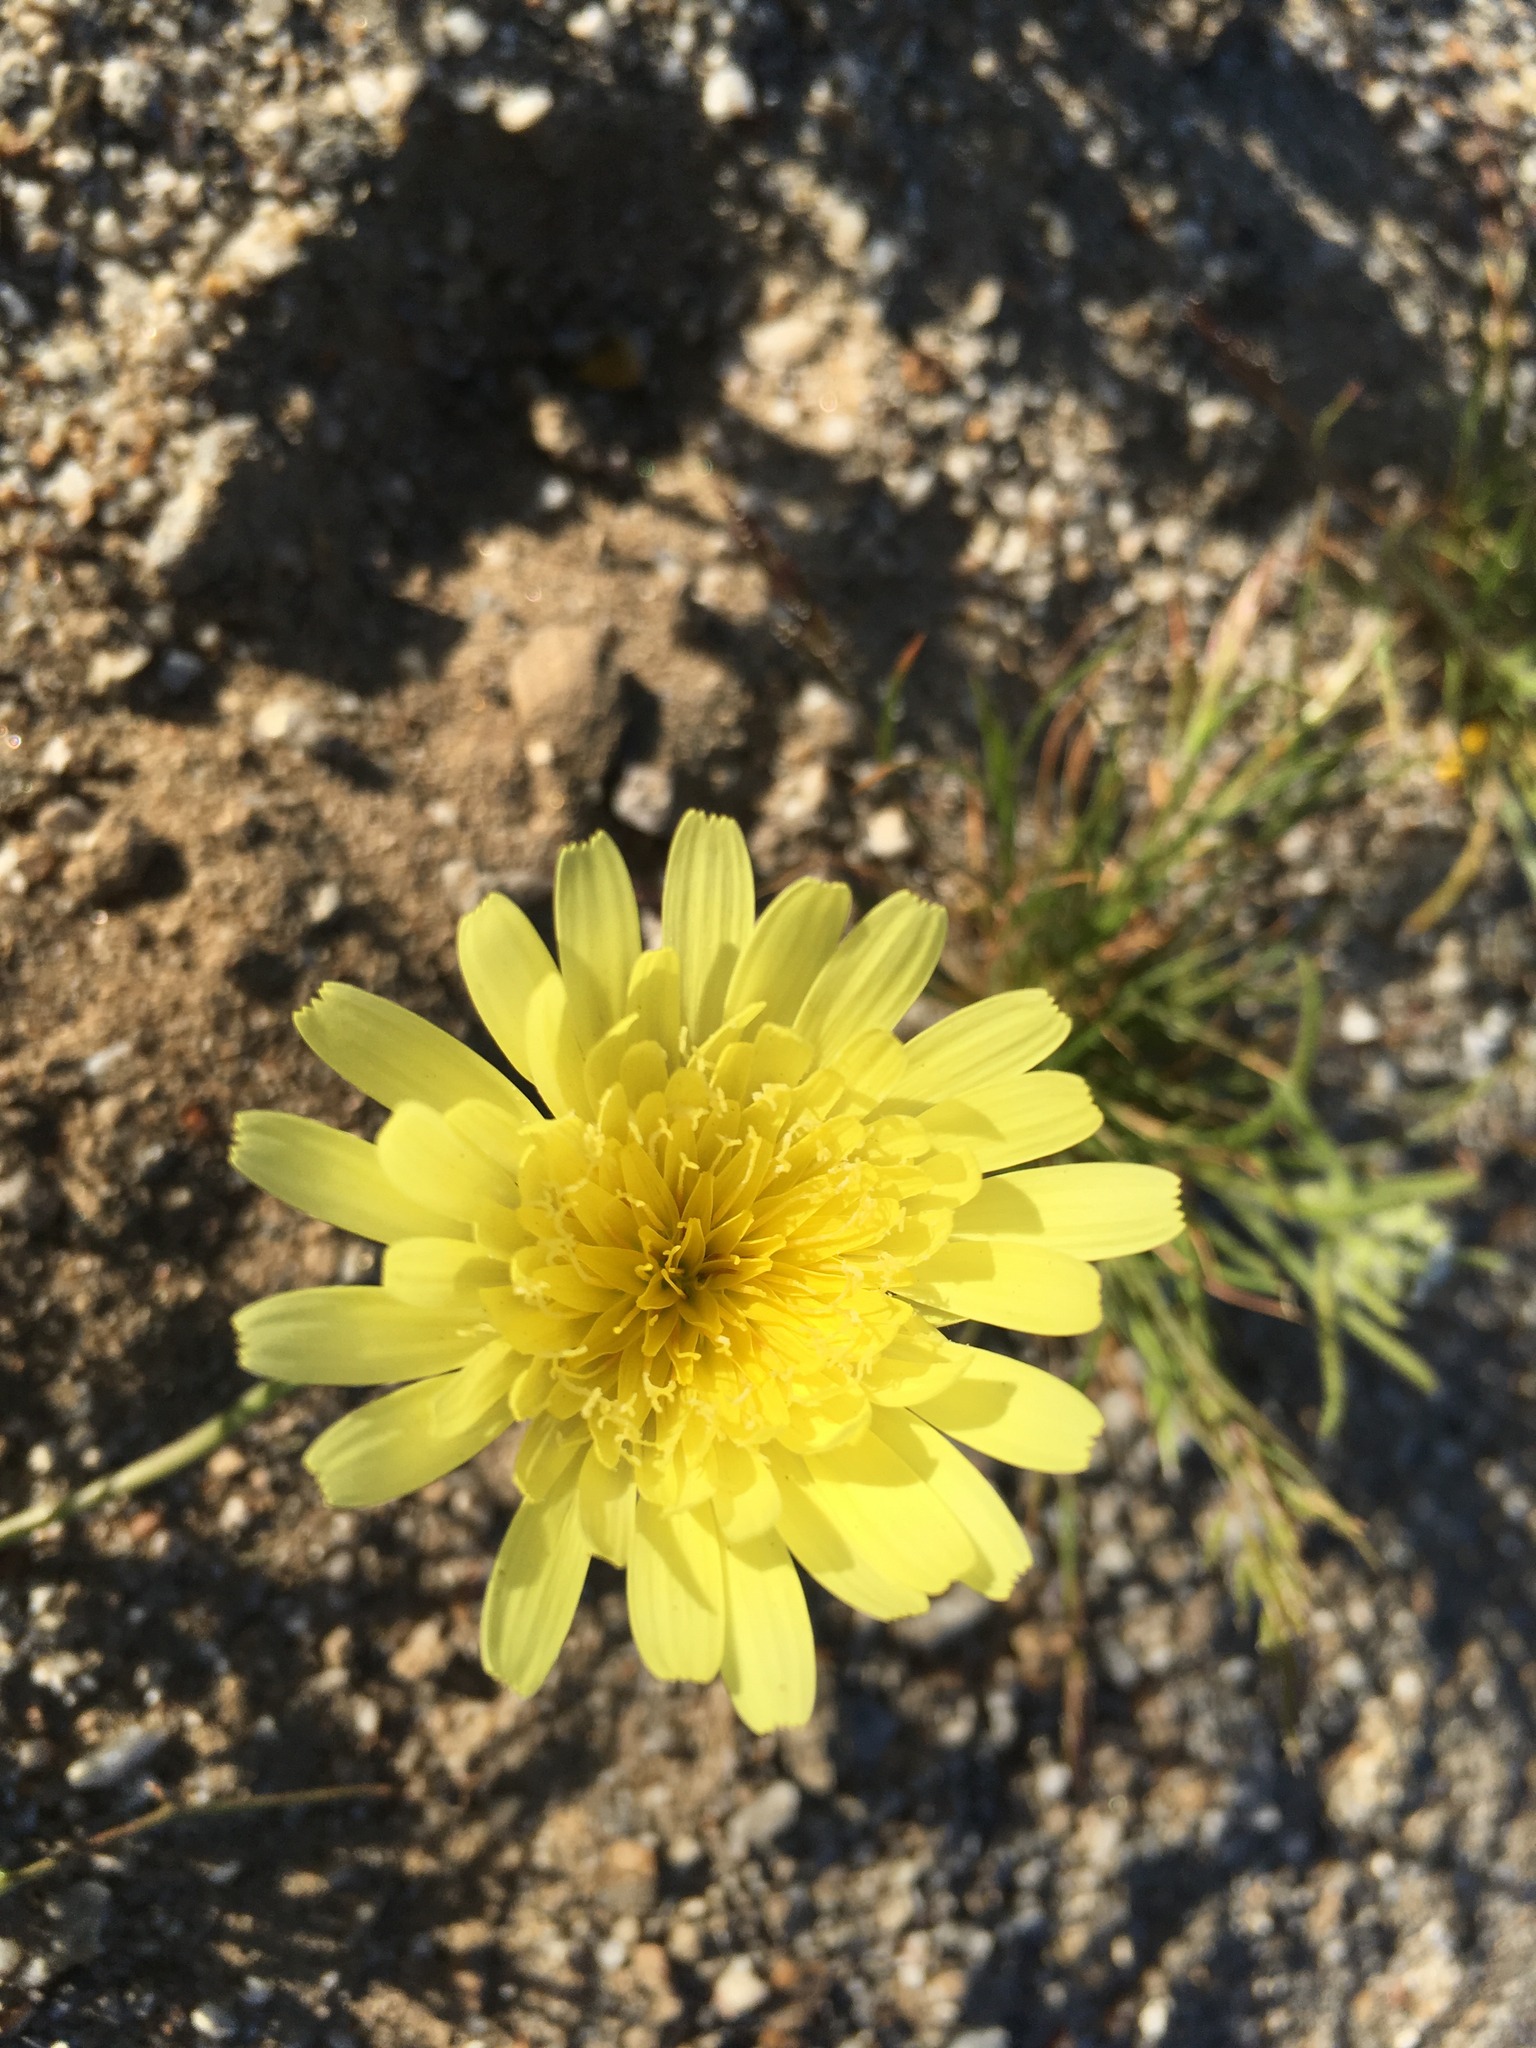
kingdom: Plantae
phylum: Tracheophyta
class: Magnoliopsida
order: Asterales
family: Asteraceae
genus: Malacothrix
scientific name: Malacothrix glabrata
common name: Smooth desert-dandelion
